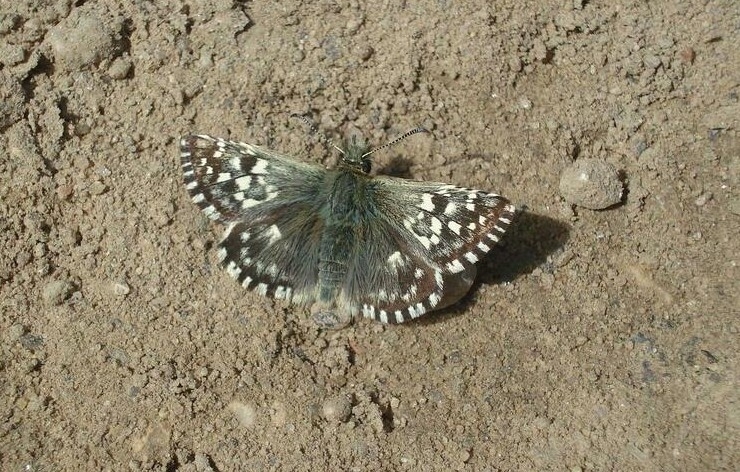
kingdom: Animalia
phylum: Arthropoda
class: Insecta
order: Lepidoptera
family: Hesperiidae
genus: Pyrgus
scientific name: Pyrgus malvae
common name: Grizzled skipper
